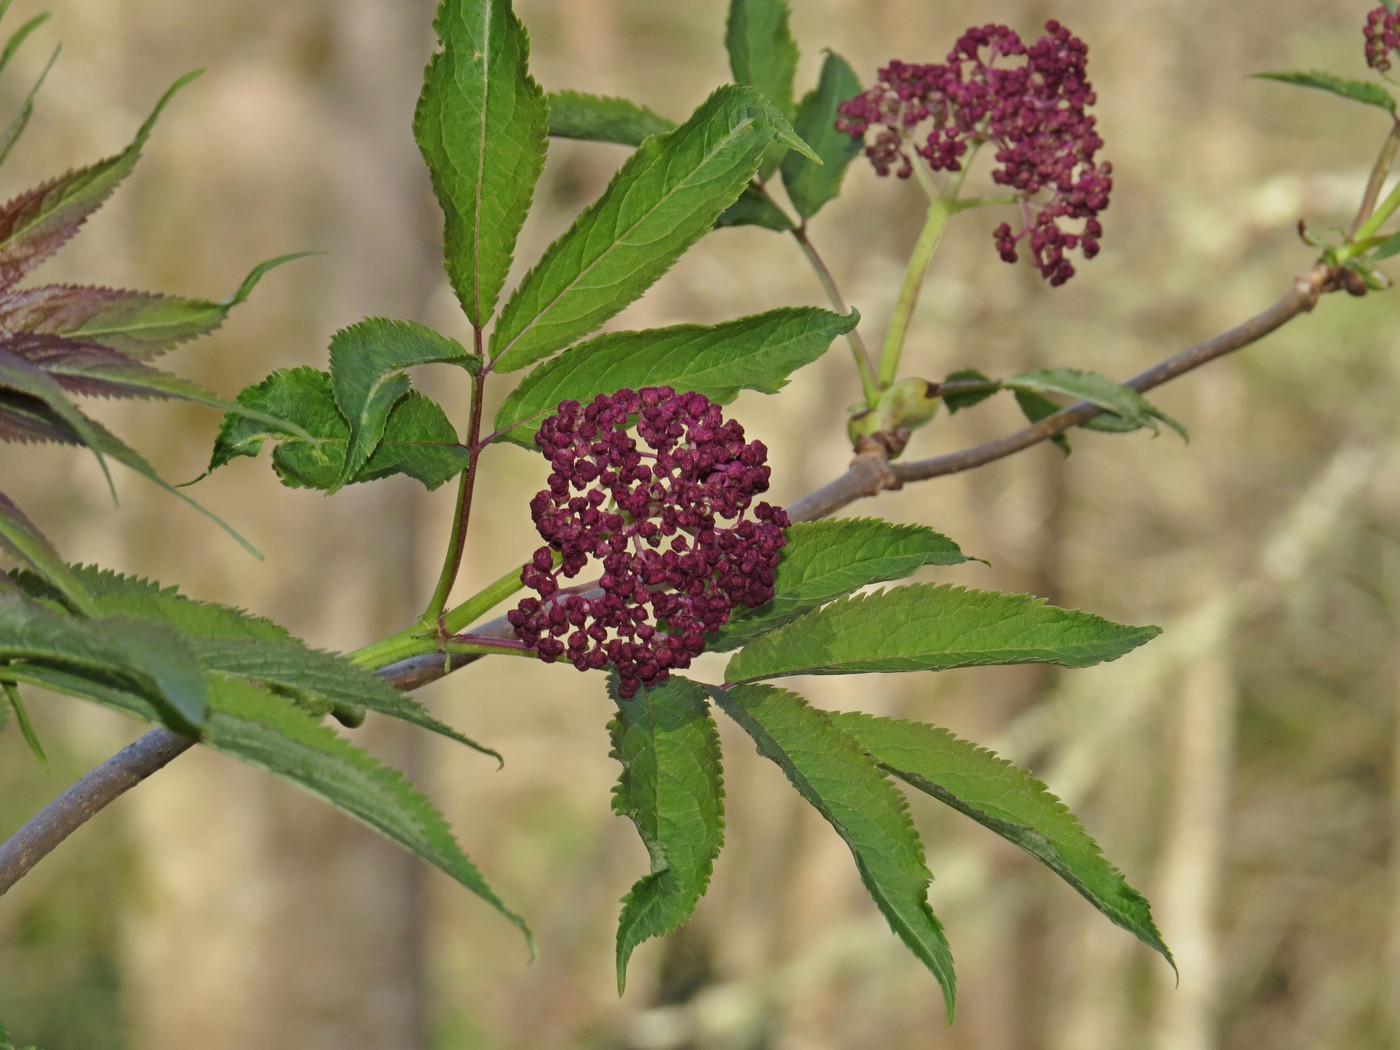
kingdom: Plantae
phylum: Tracheophyta
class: Magnoliopsida
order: Dipsacales
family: Viburnaceae
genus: Sambucus
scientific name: Sambucus racemosa
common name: Red-berried elder
